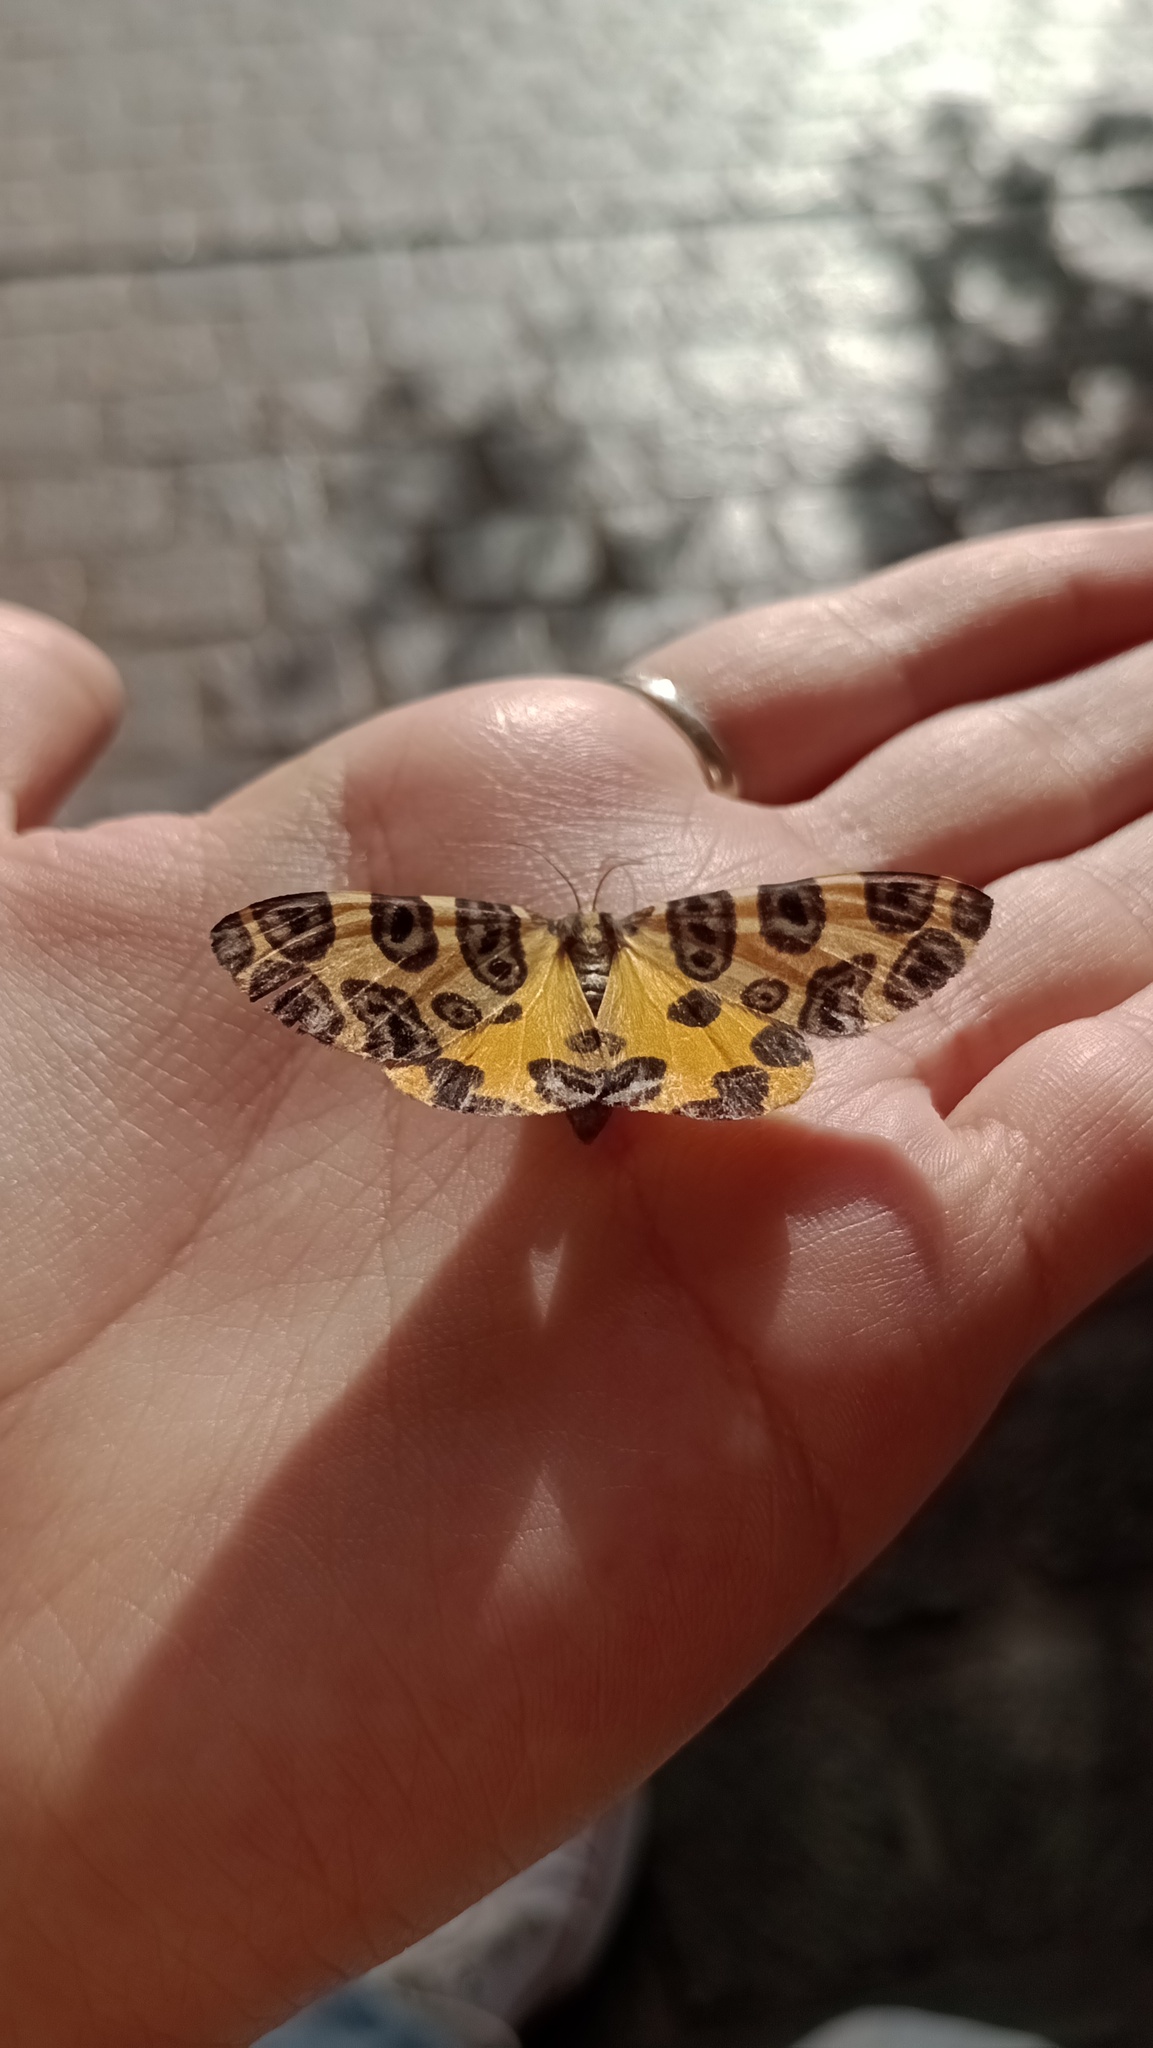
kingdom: Animalia
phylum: Arthropoda
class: Insecta
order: Lepidoptera
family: Geometridae
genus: Pantherodes
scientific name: Pantherodes pardalaria
